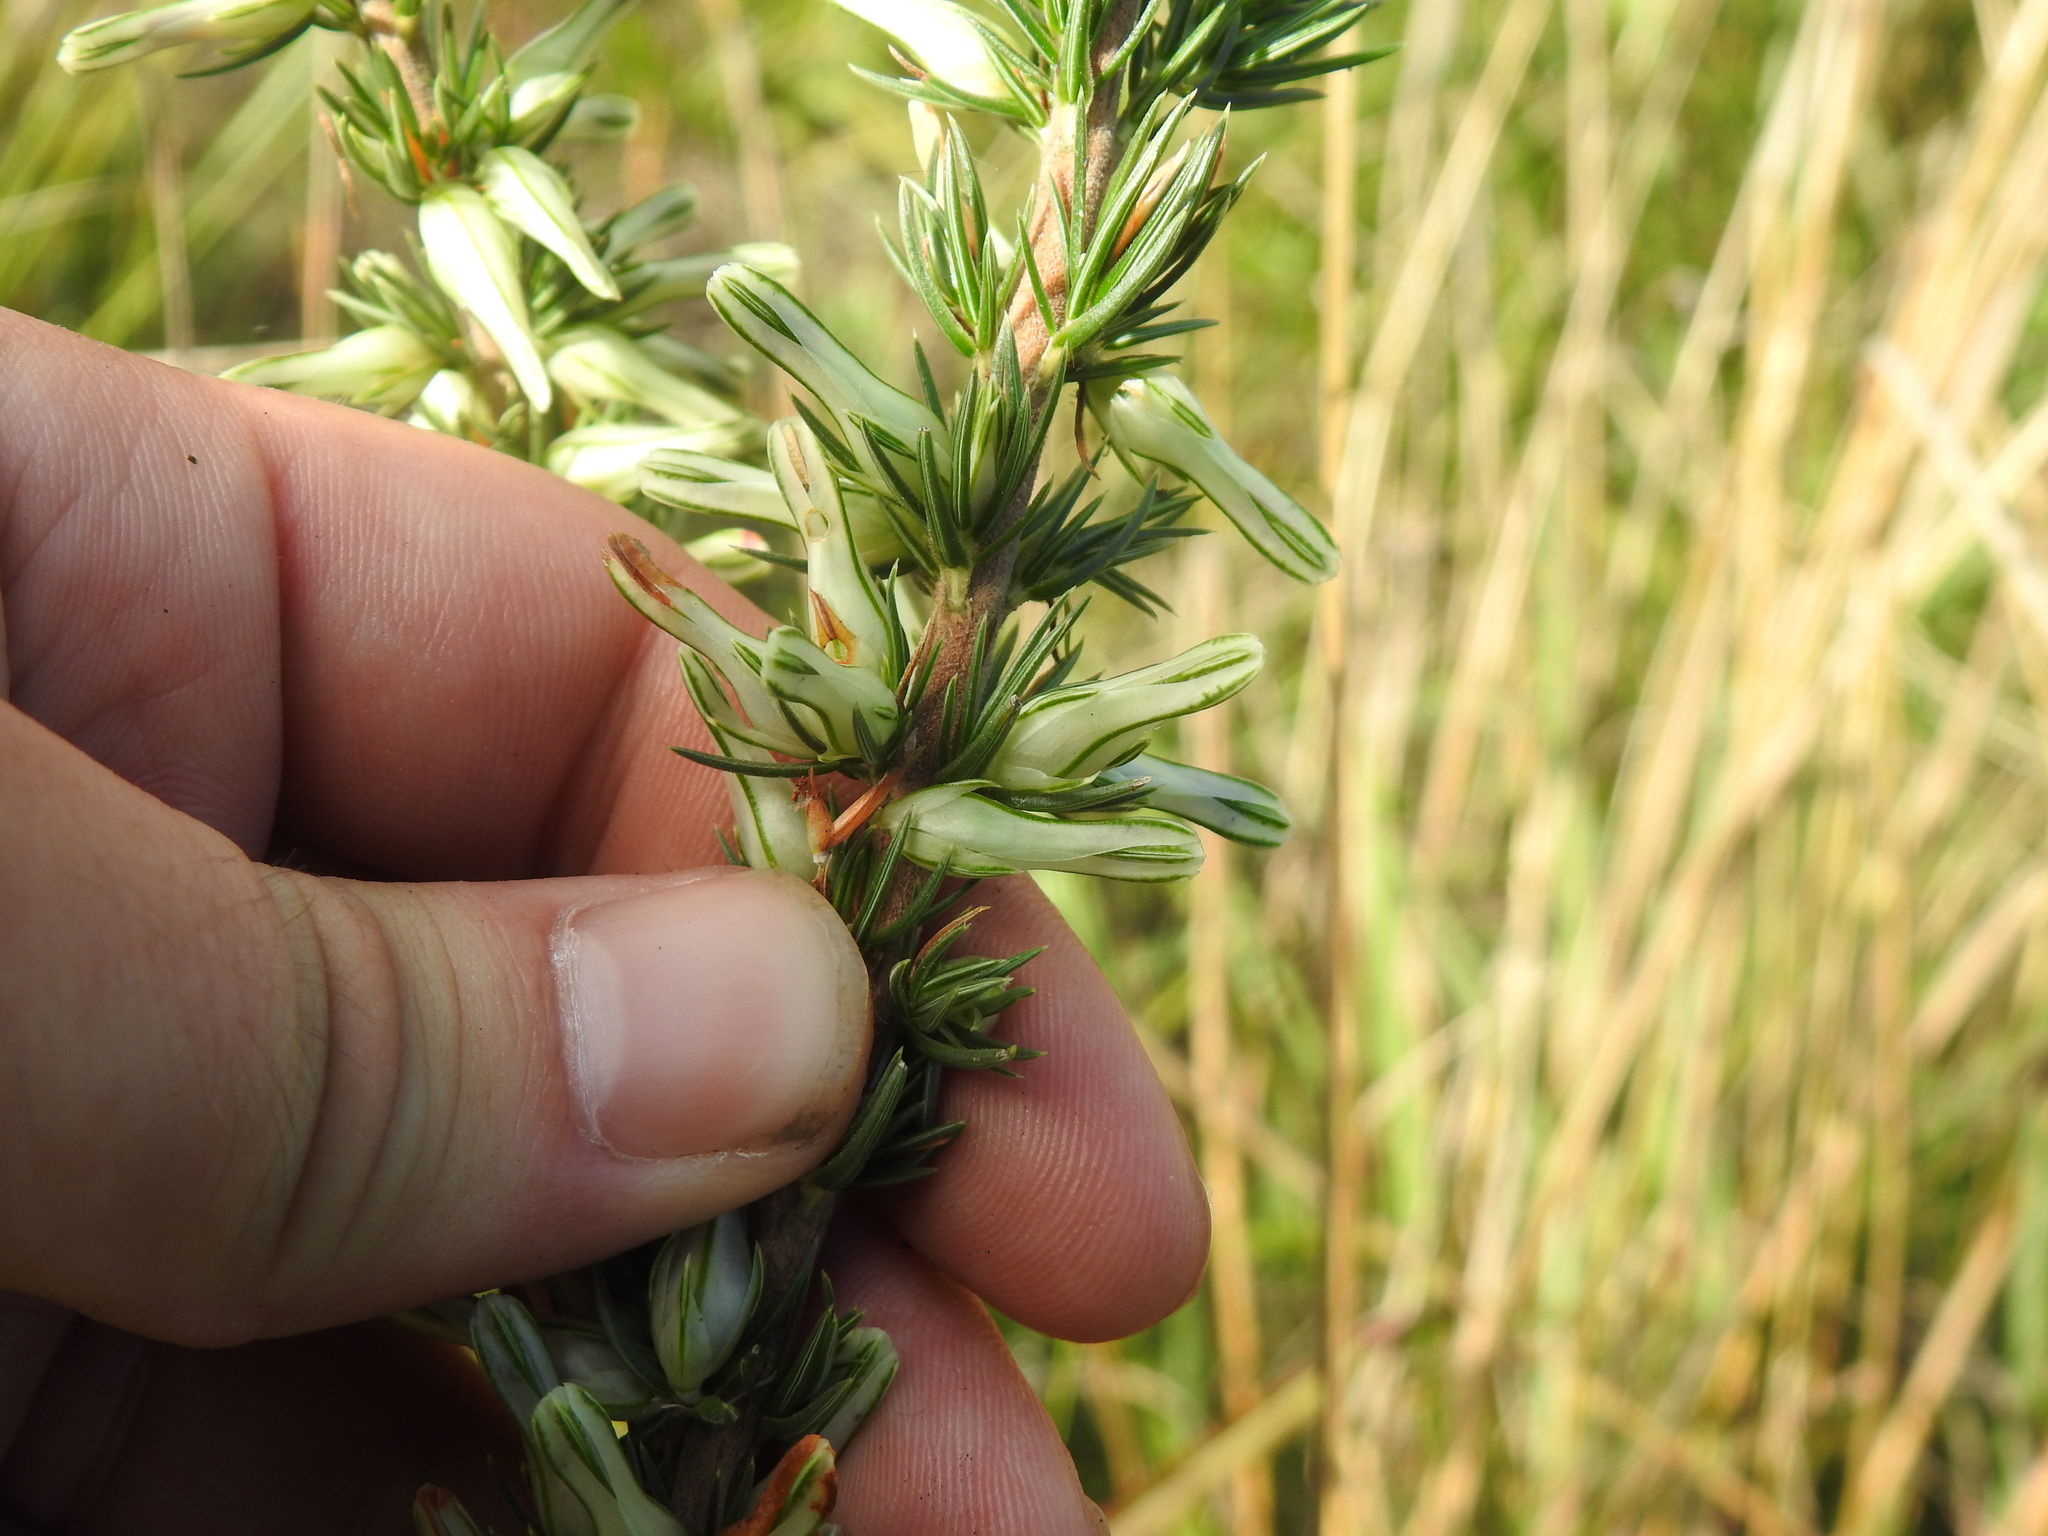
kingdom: Plantae
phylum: Tracheophyta
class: Magnoliopsida
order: Ericales
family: Ericaceae
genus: Erica
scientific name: Erica nabea
